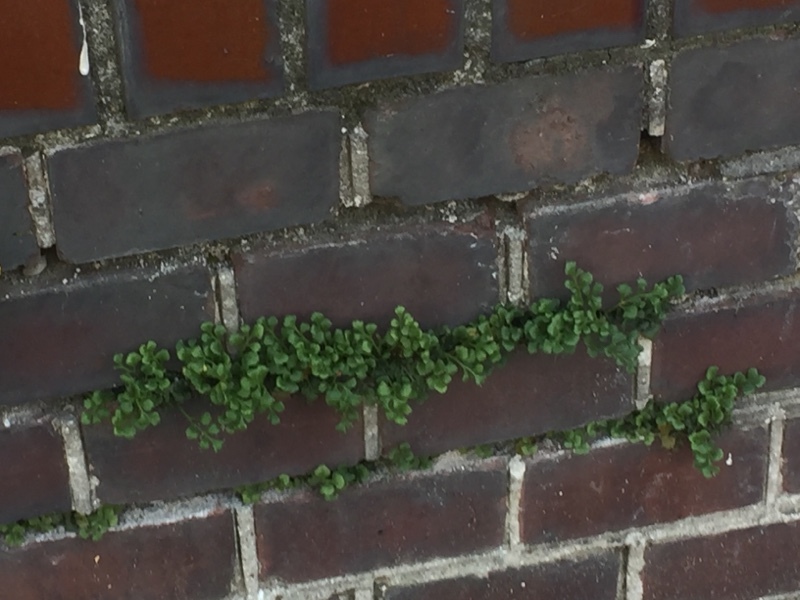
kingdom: Plantae
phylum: Tracheophyta
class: Polypodiopsida
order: Polypodiales
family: Aspleniaceae
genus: Asplenium
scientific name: Asplenium ruta-muraria
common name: Wall-rue
